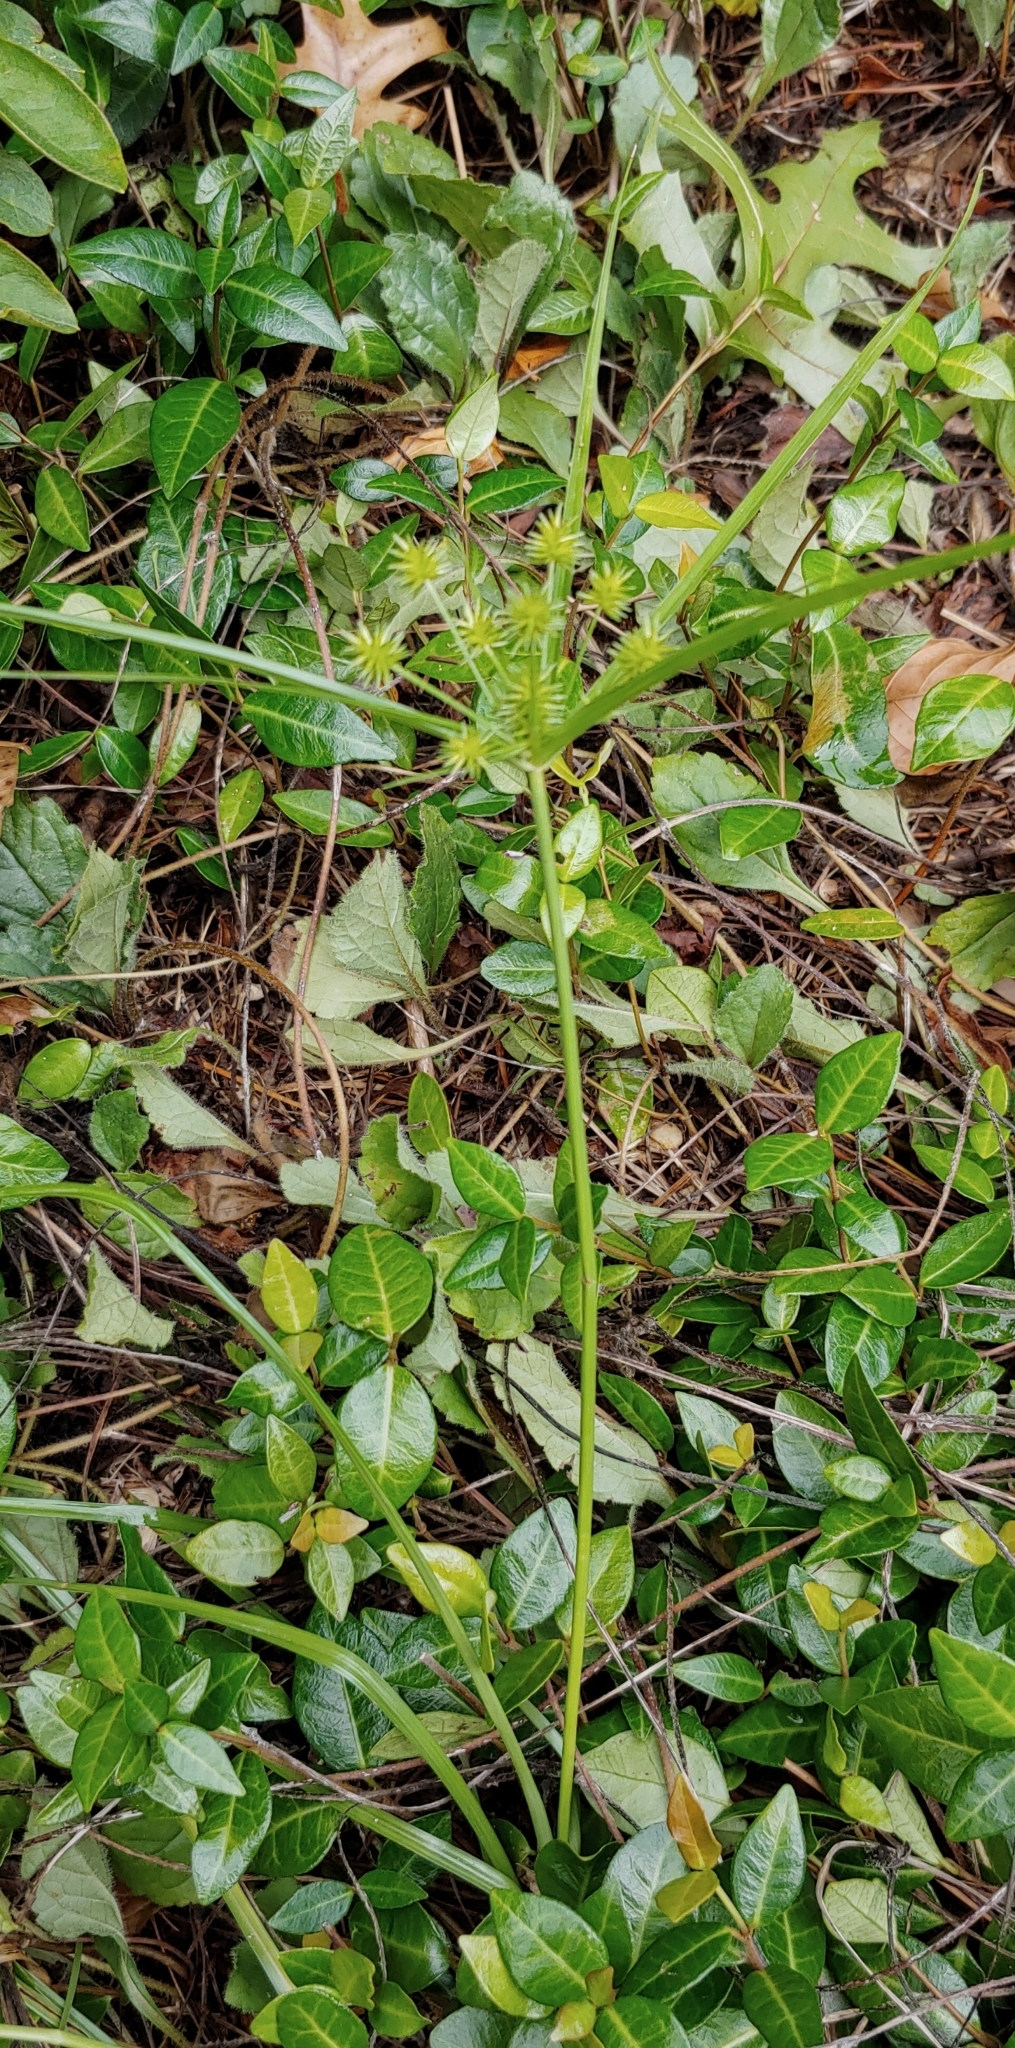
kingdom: Plantae
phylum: Tracheophyta
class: Liliopsida
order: Poales
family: Cyperaceae
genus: Cyperus
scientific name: Cyperus croceus
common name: Baldwin's flatsedge
